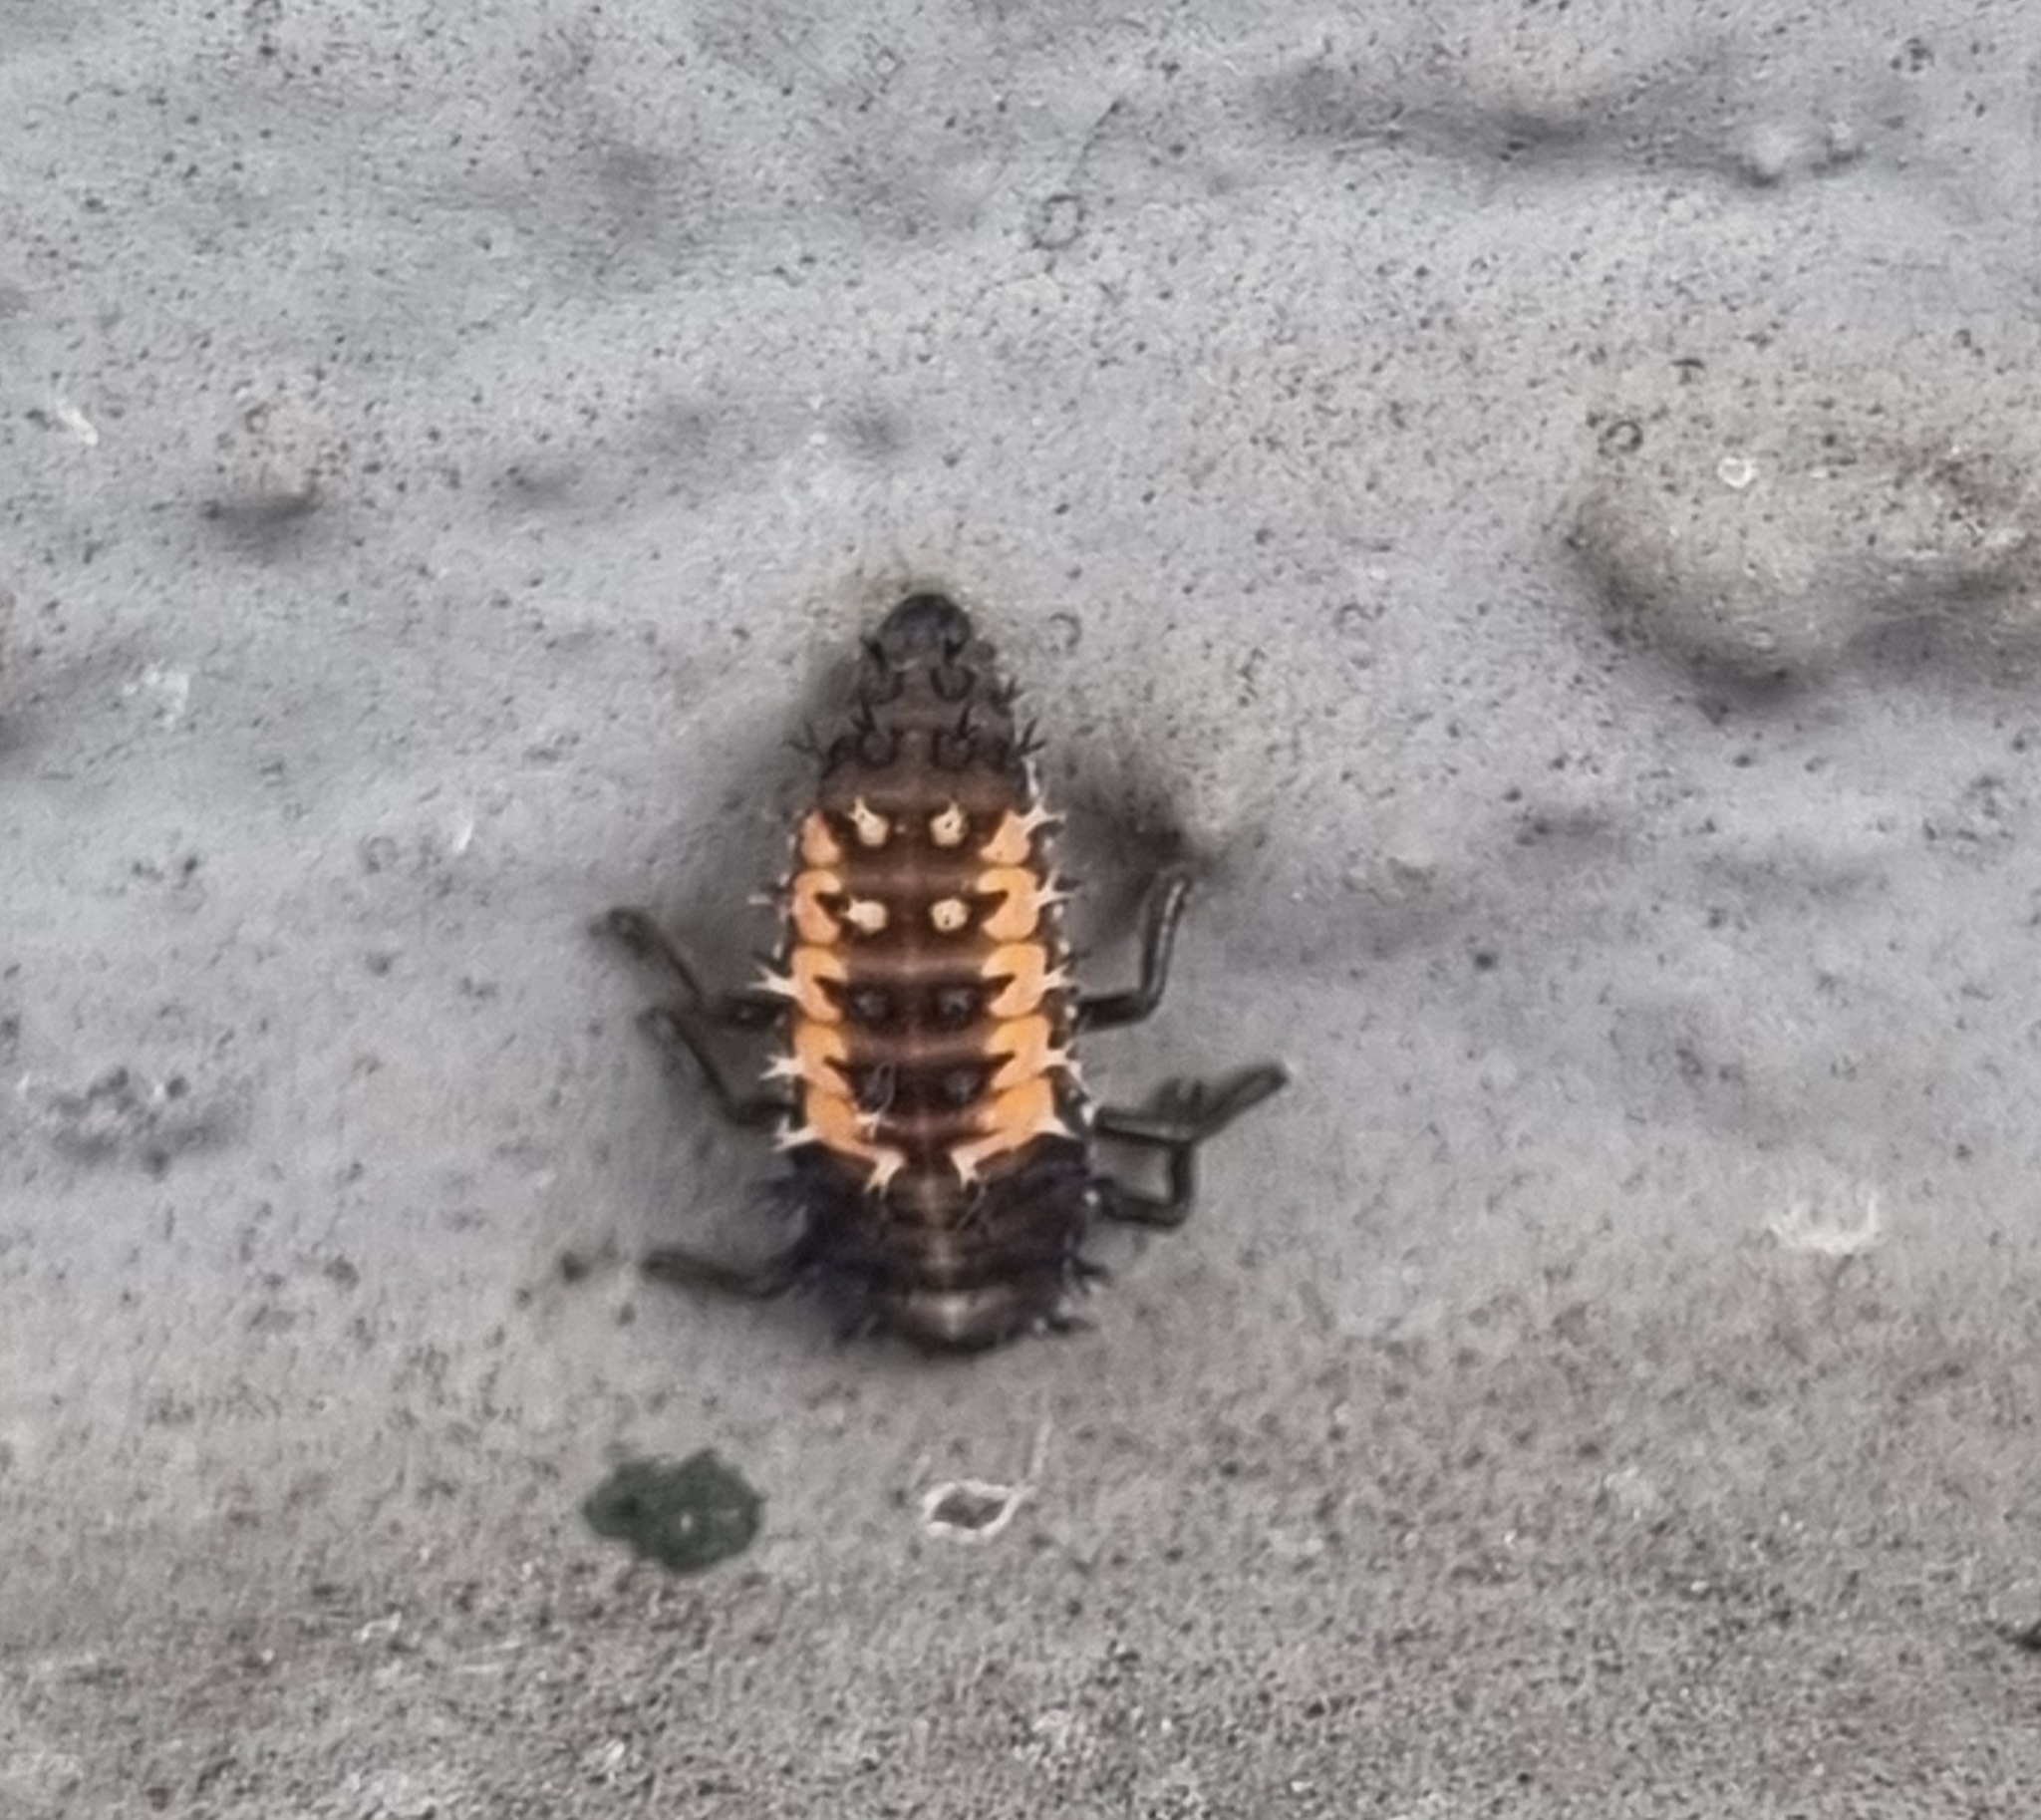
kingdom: Animalia
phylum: Arthropoda
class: Insecta
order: Coleoptera
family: Coccinellidae
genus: Harmonia
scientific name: Harmonia axyridis
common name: Harlequin ladybird
